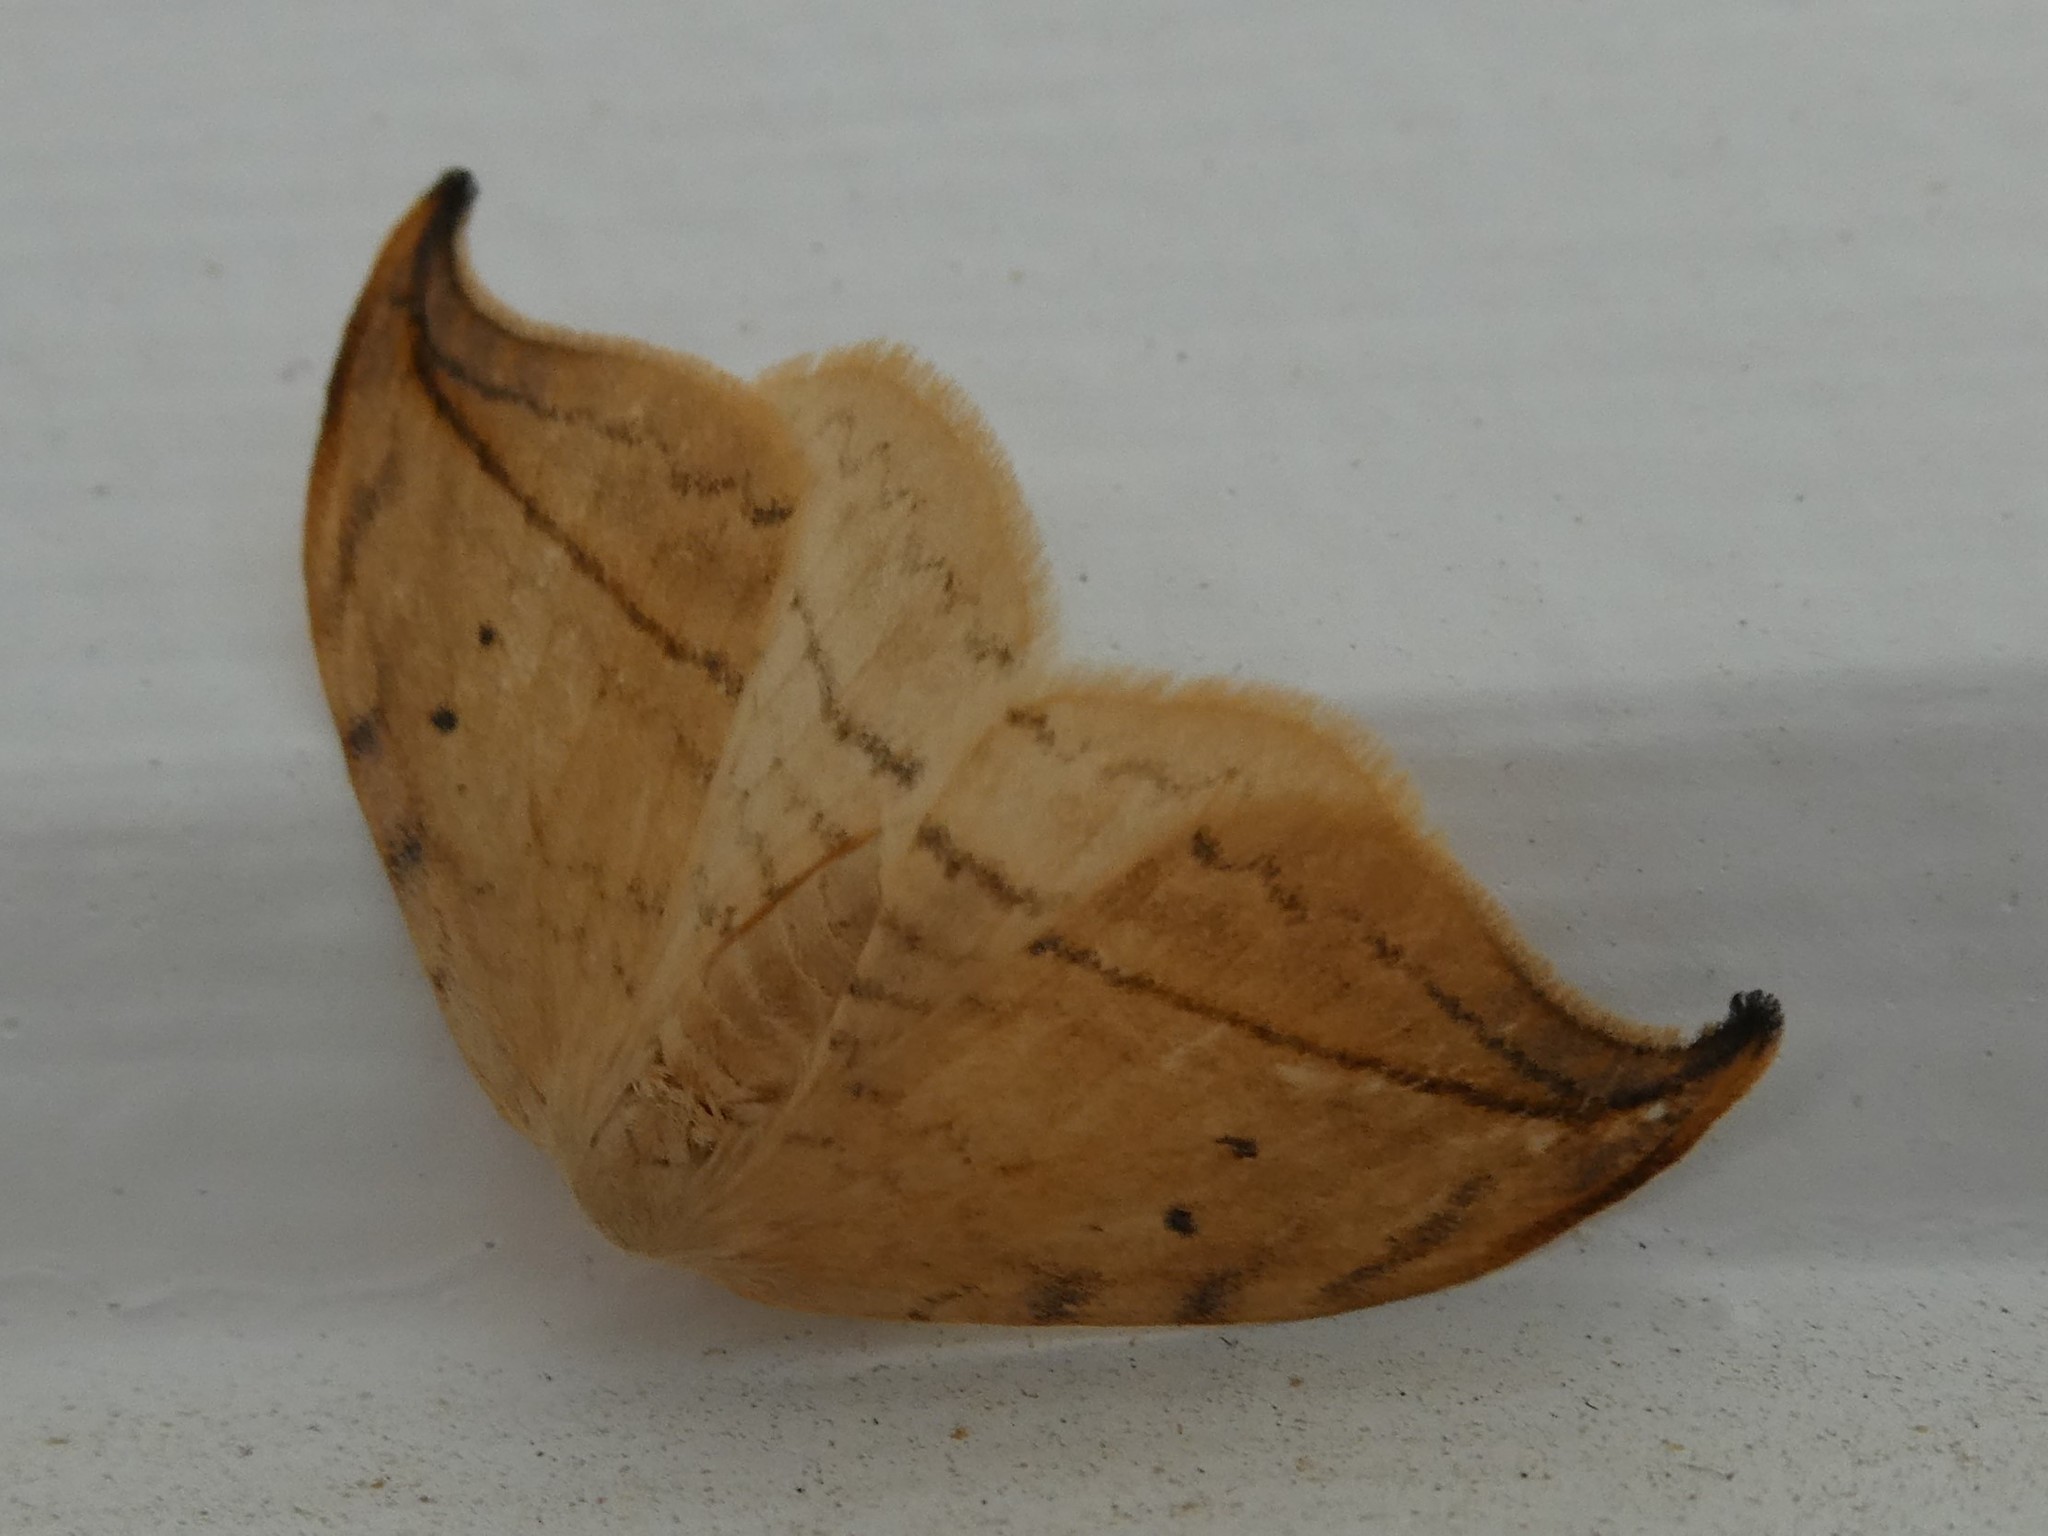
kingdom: Animalia
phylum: Arthropoda
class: Insecta
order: Lepidoptera
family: Drepanidae
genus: Drepana
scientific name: Drepana arcuata
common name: Arched hooktip moth
